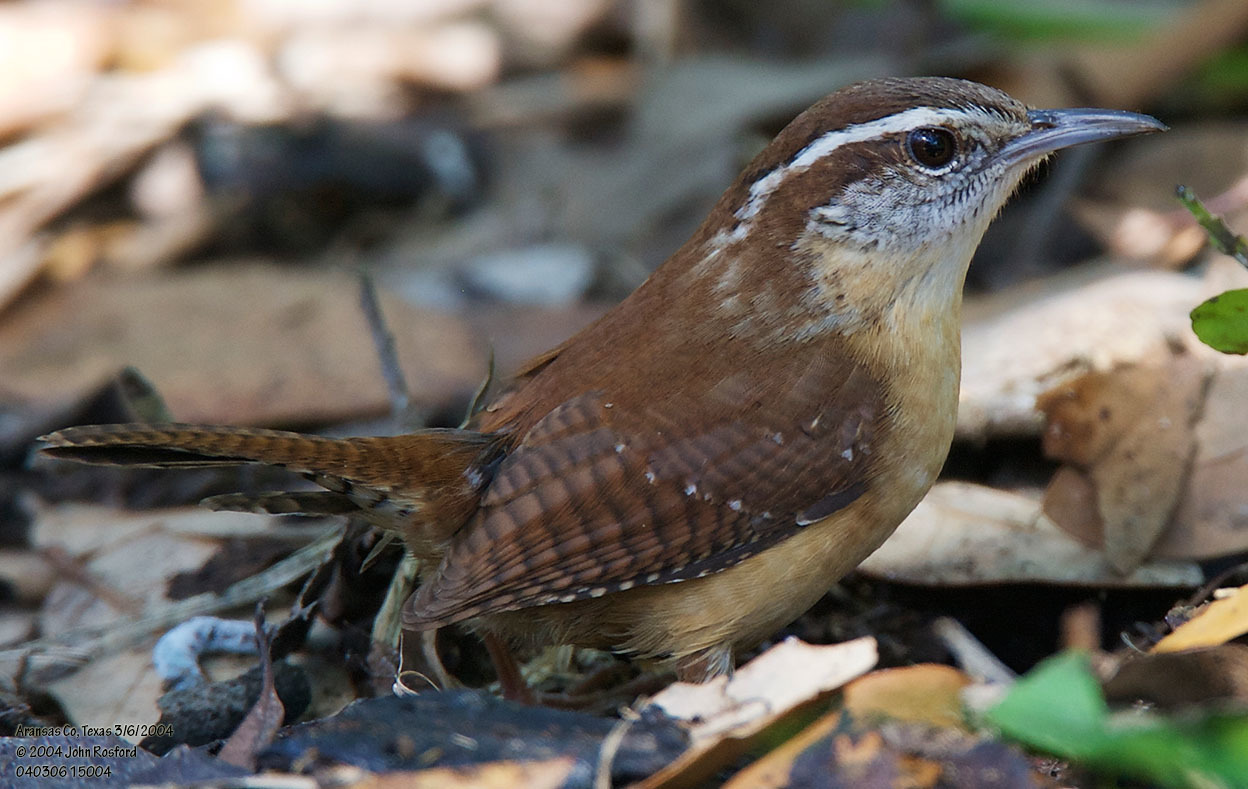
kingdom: Animalia
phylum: Chordata
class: Aves
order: Passeriformes
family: Troglodytidae
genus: Thryothorus
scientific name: Thryothorus ludovicianus
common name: Carolina wren
